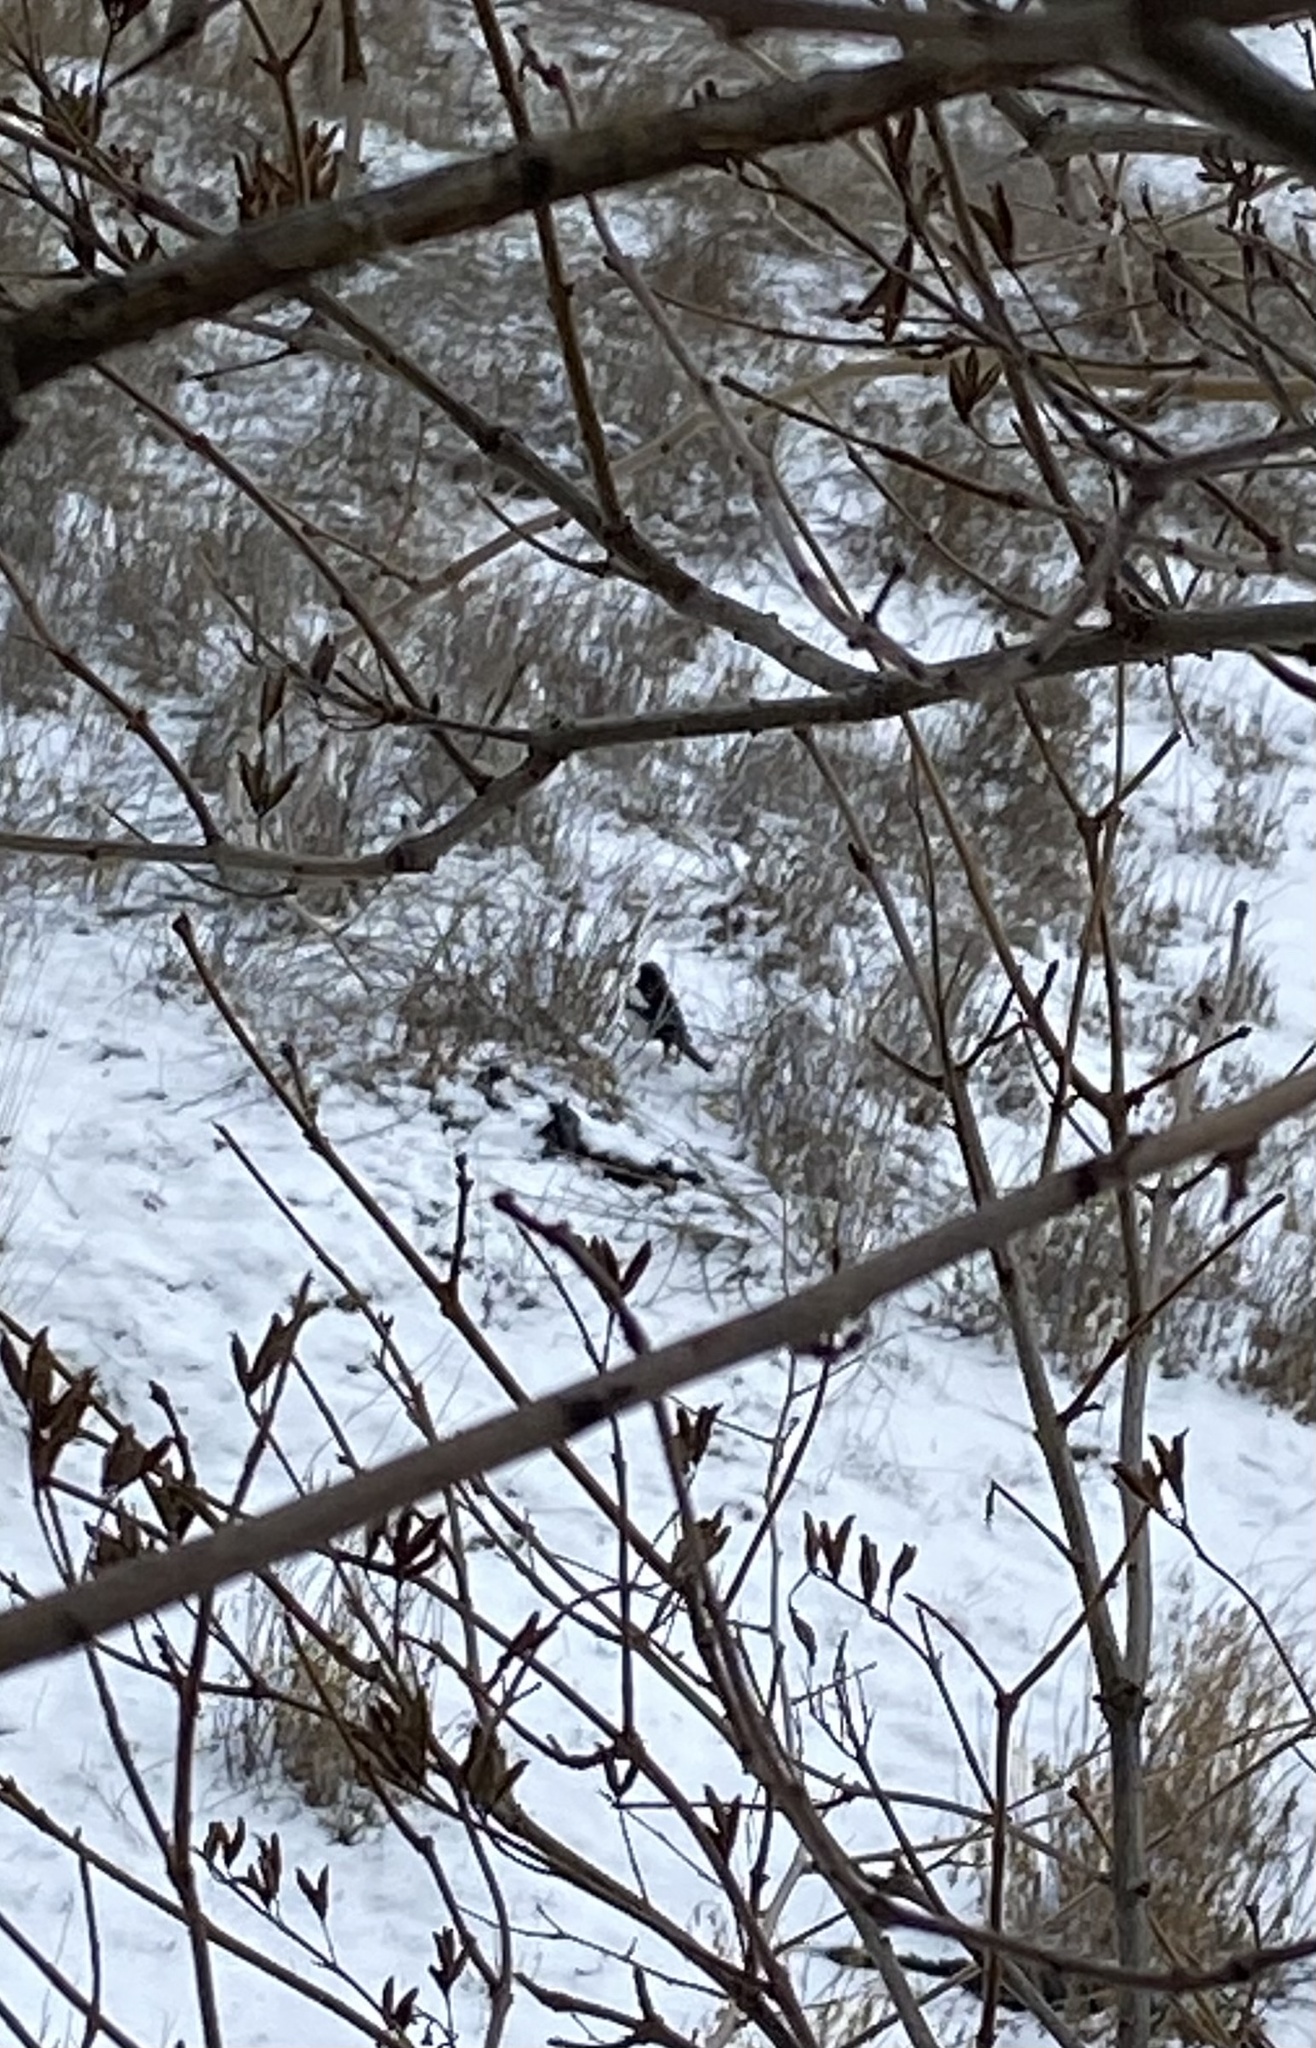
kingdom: Animalia
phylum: Chordata
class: Aves
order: Passeriformes
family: Corvidae
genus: Pica
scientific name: Pica hudsonia
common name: Black-billed magpie
